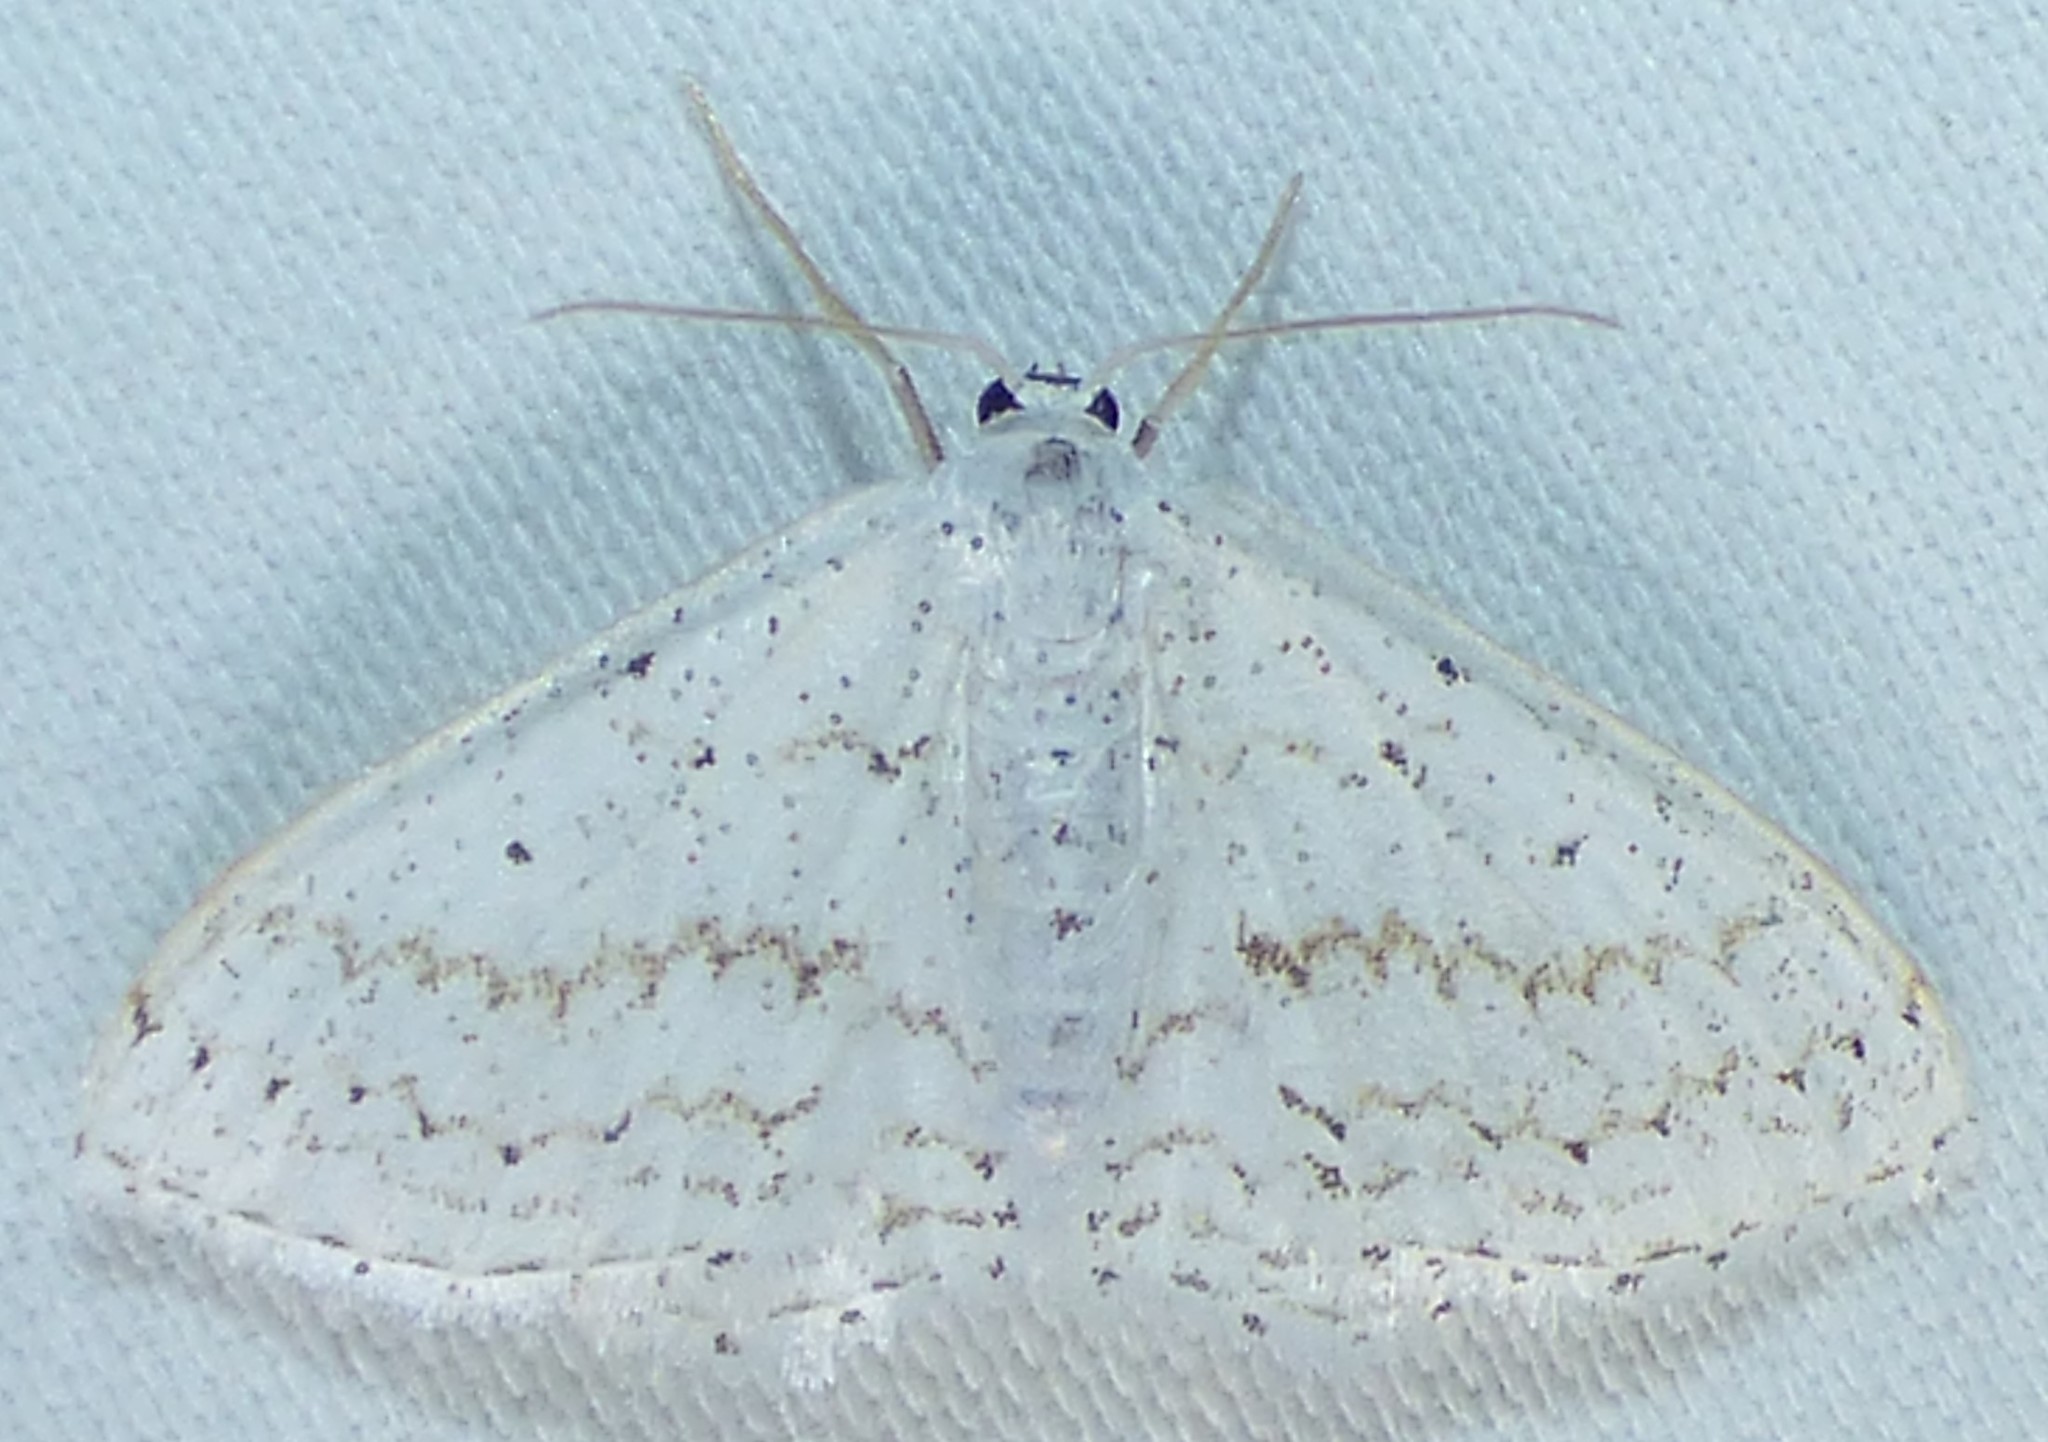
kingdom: Animalia
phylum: Arthropoda
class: Insecta
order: Lepidoptera
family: Geometridae
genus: Idaea
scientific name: Idaea tacturata
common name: Dot-lined wave
